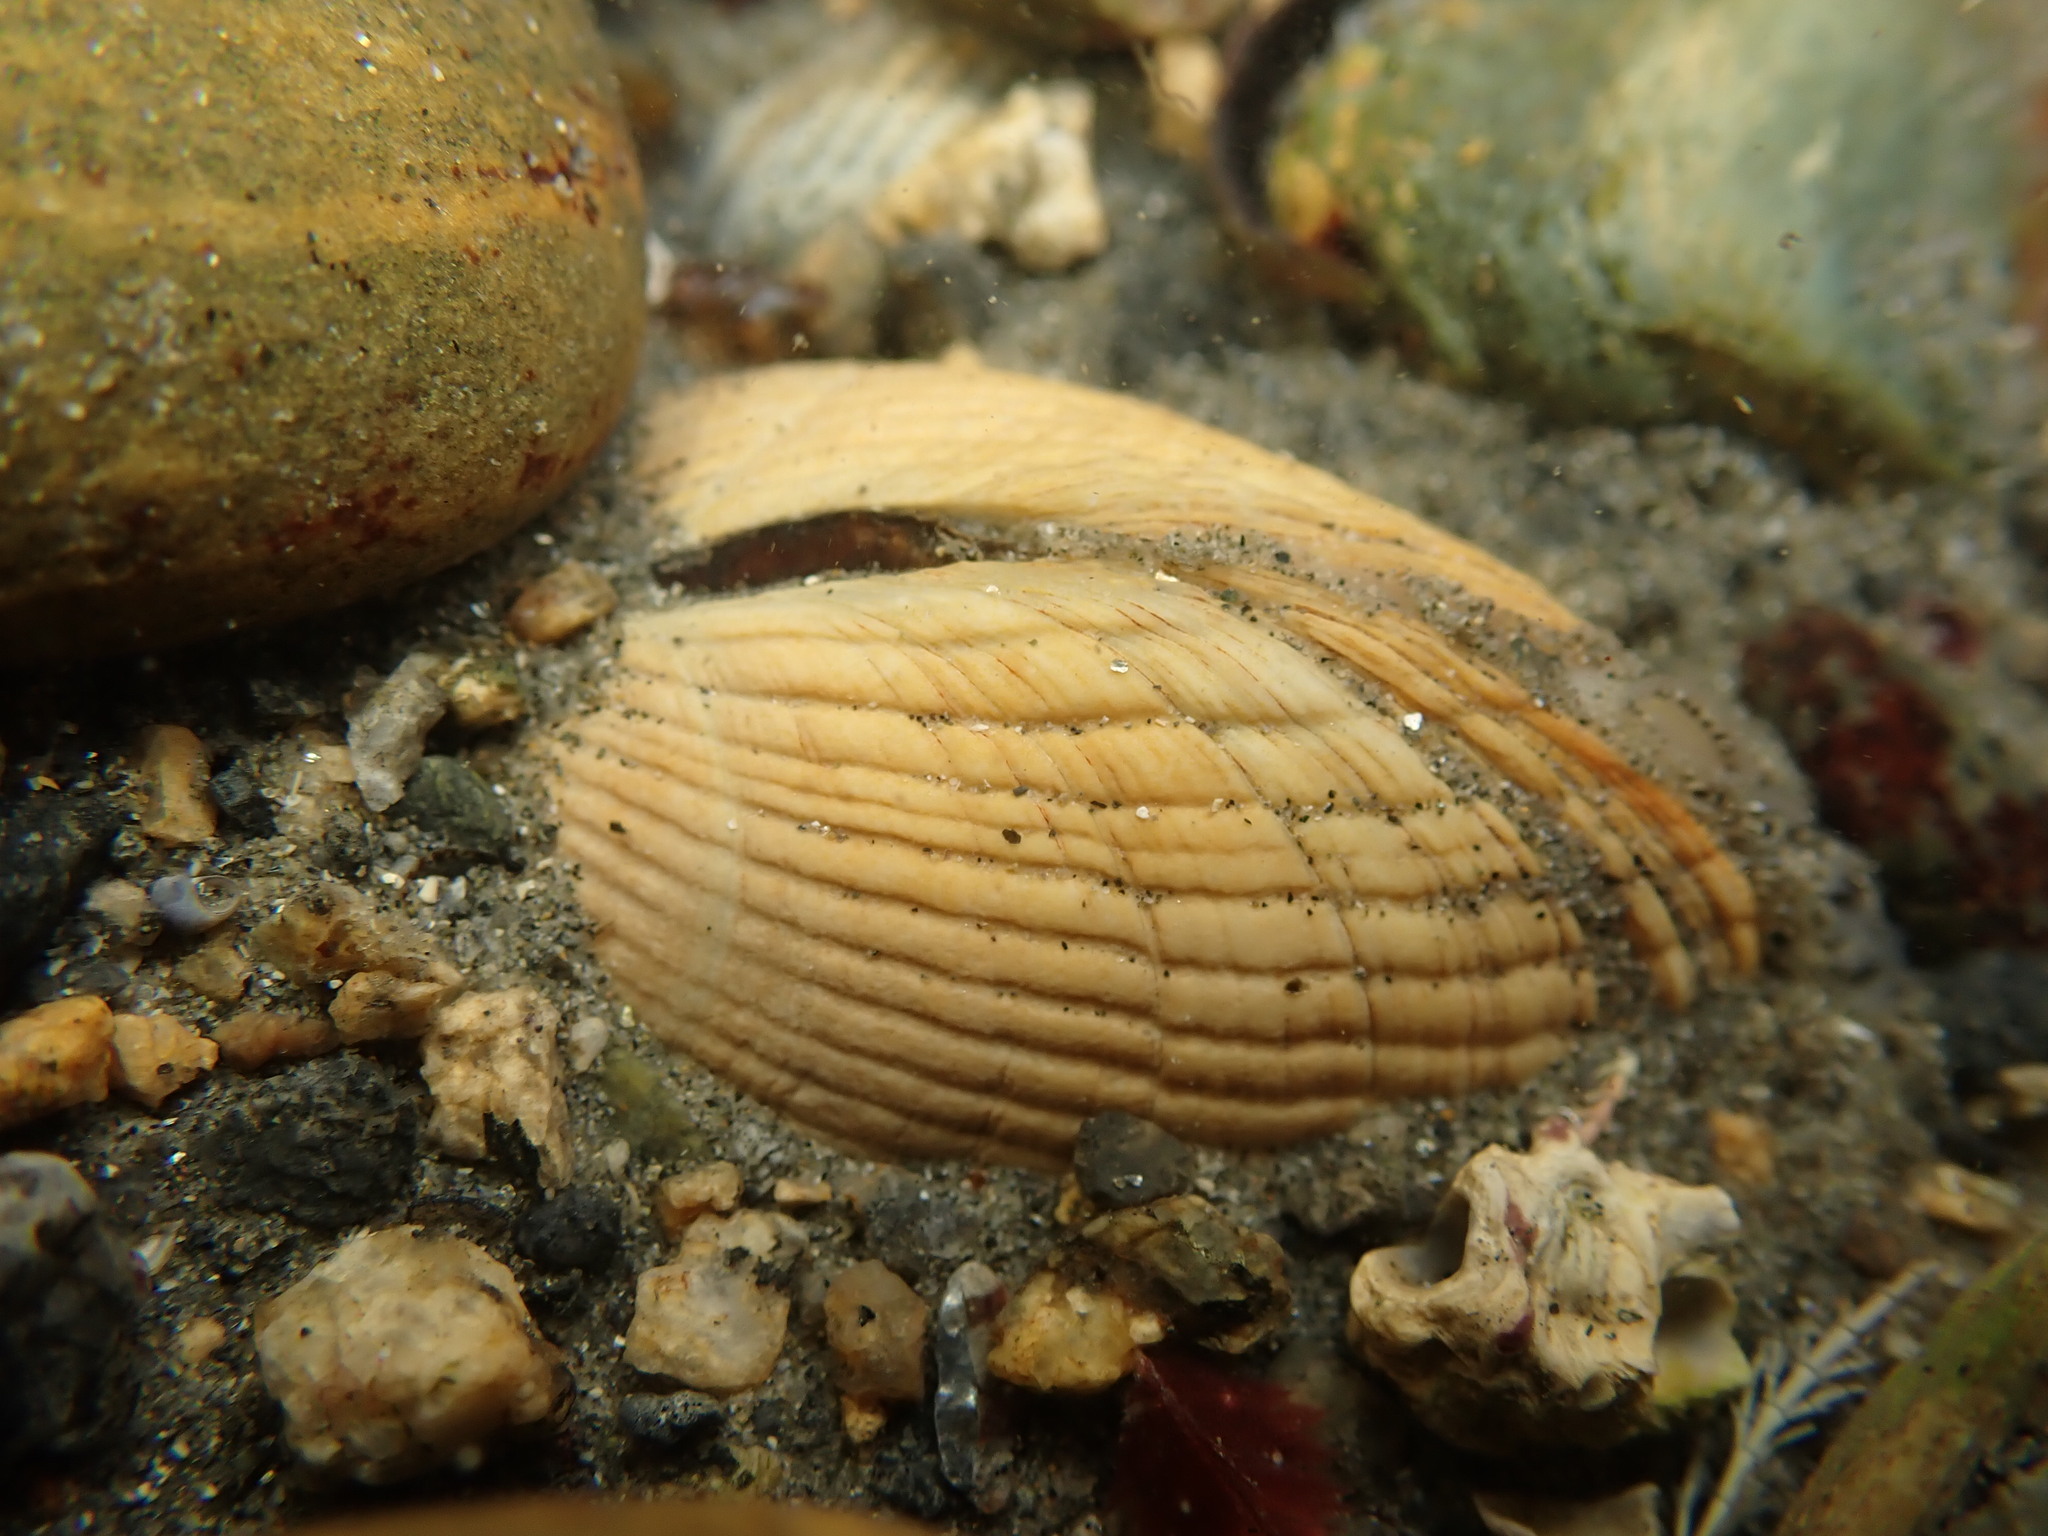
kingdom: Animalia
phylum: Mollusca
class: Bivalvia
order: Venerida
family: Veneridae
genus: Leukoma
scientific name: Leukoma crassicosta
